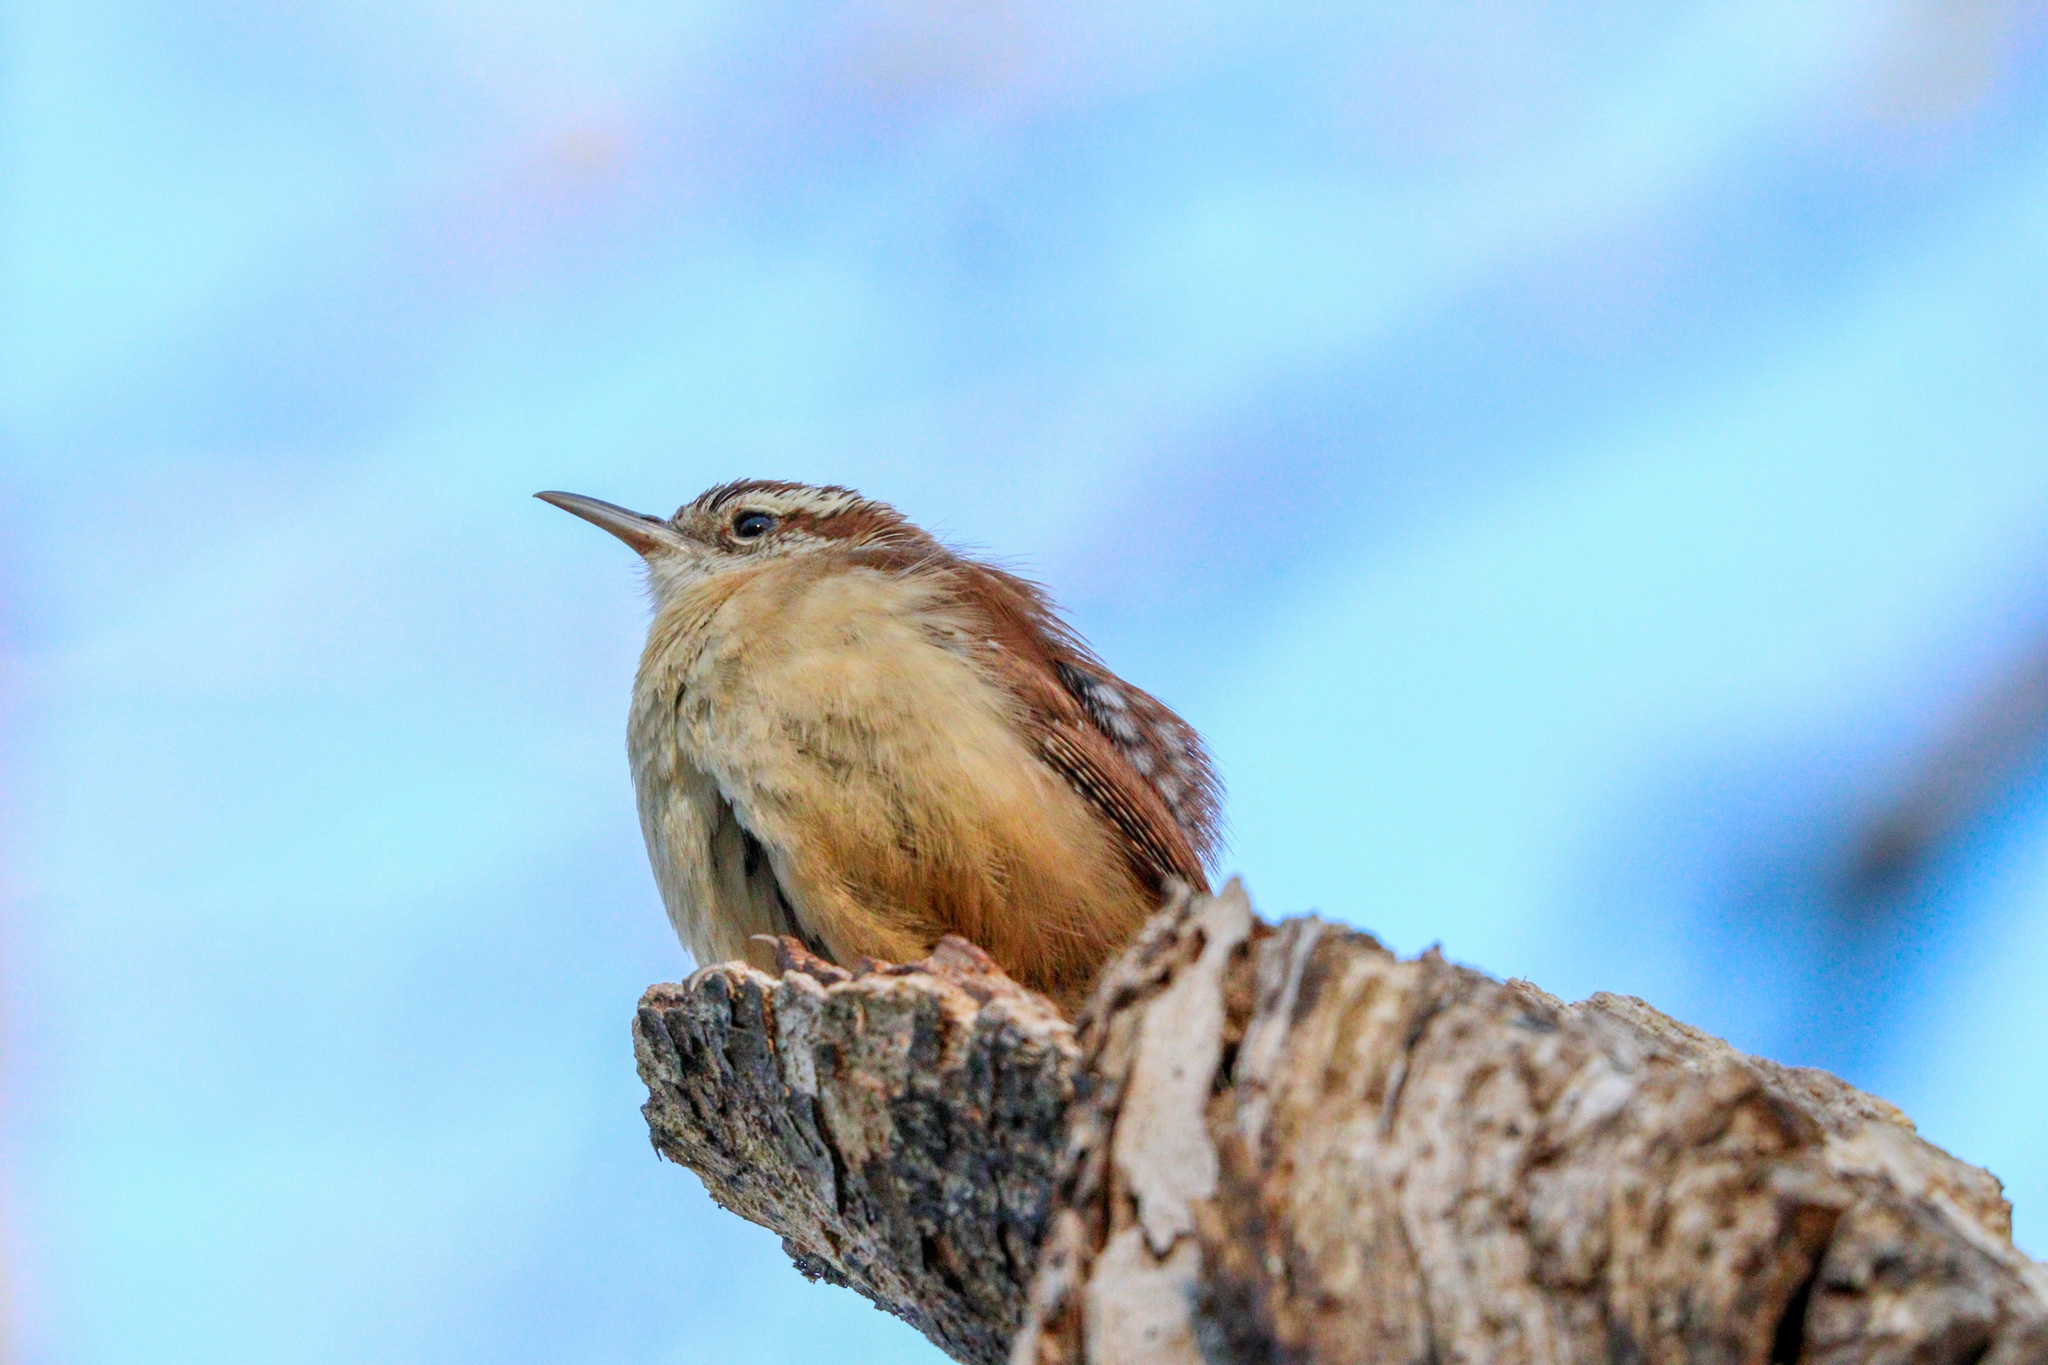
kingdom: Animalia
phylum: Chordata
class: Aves
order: Passeriformes
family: Troglodytidae
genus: Thryothorus
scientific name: Thryothorus ludovicianus
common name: Carolina wren
